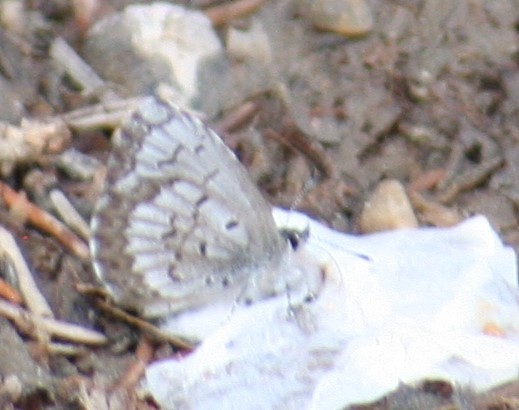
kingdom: Animalia
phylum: Arthropoda
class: Insecta
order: Lepidoptera
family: Lycaenidae
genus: Celastrina
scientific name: Celastrina lucia
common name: Lucia azure
